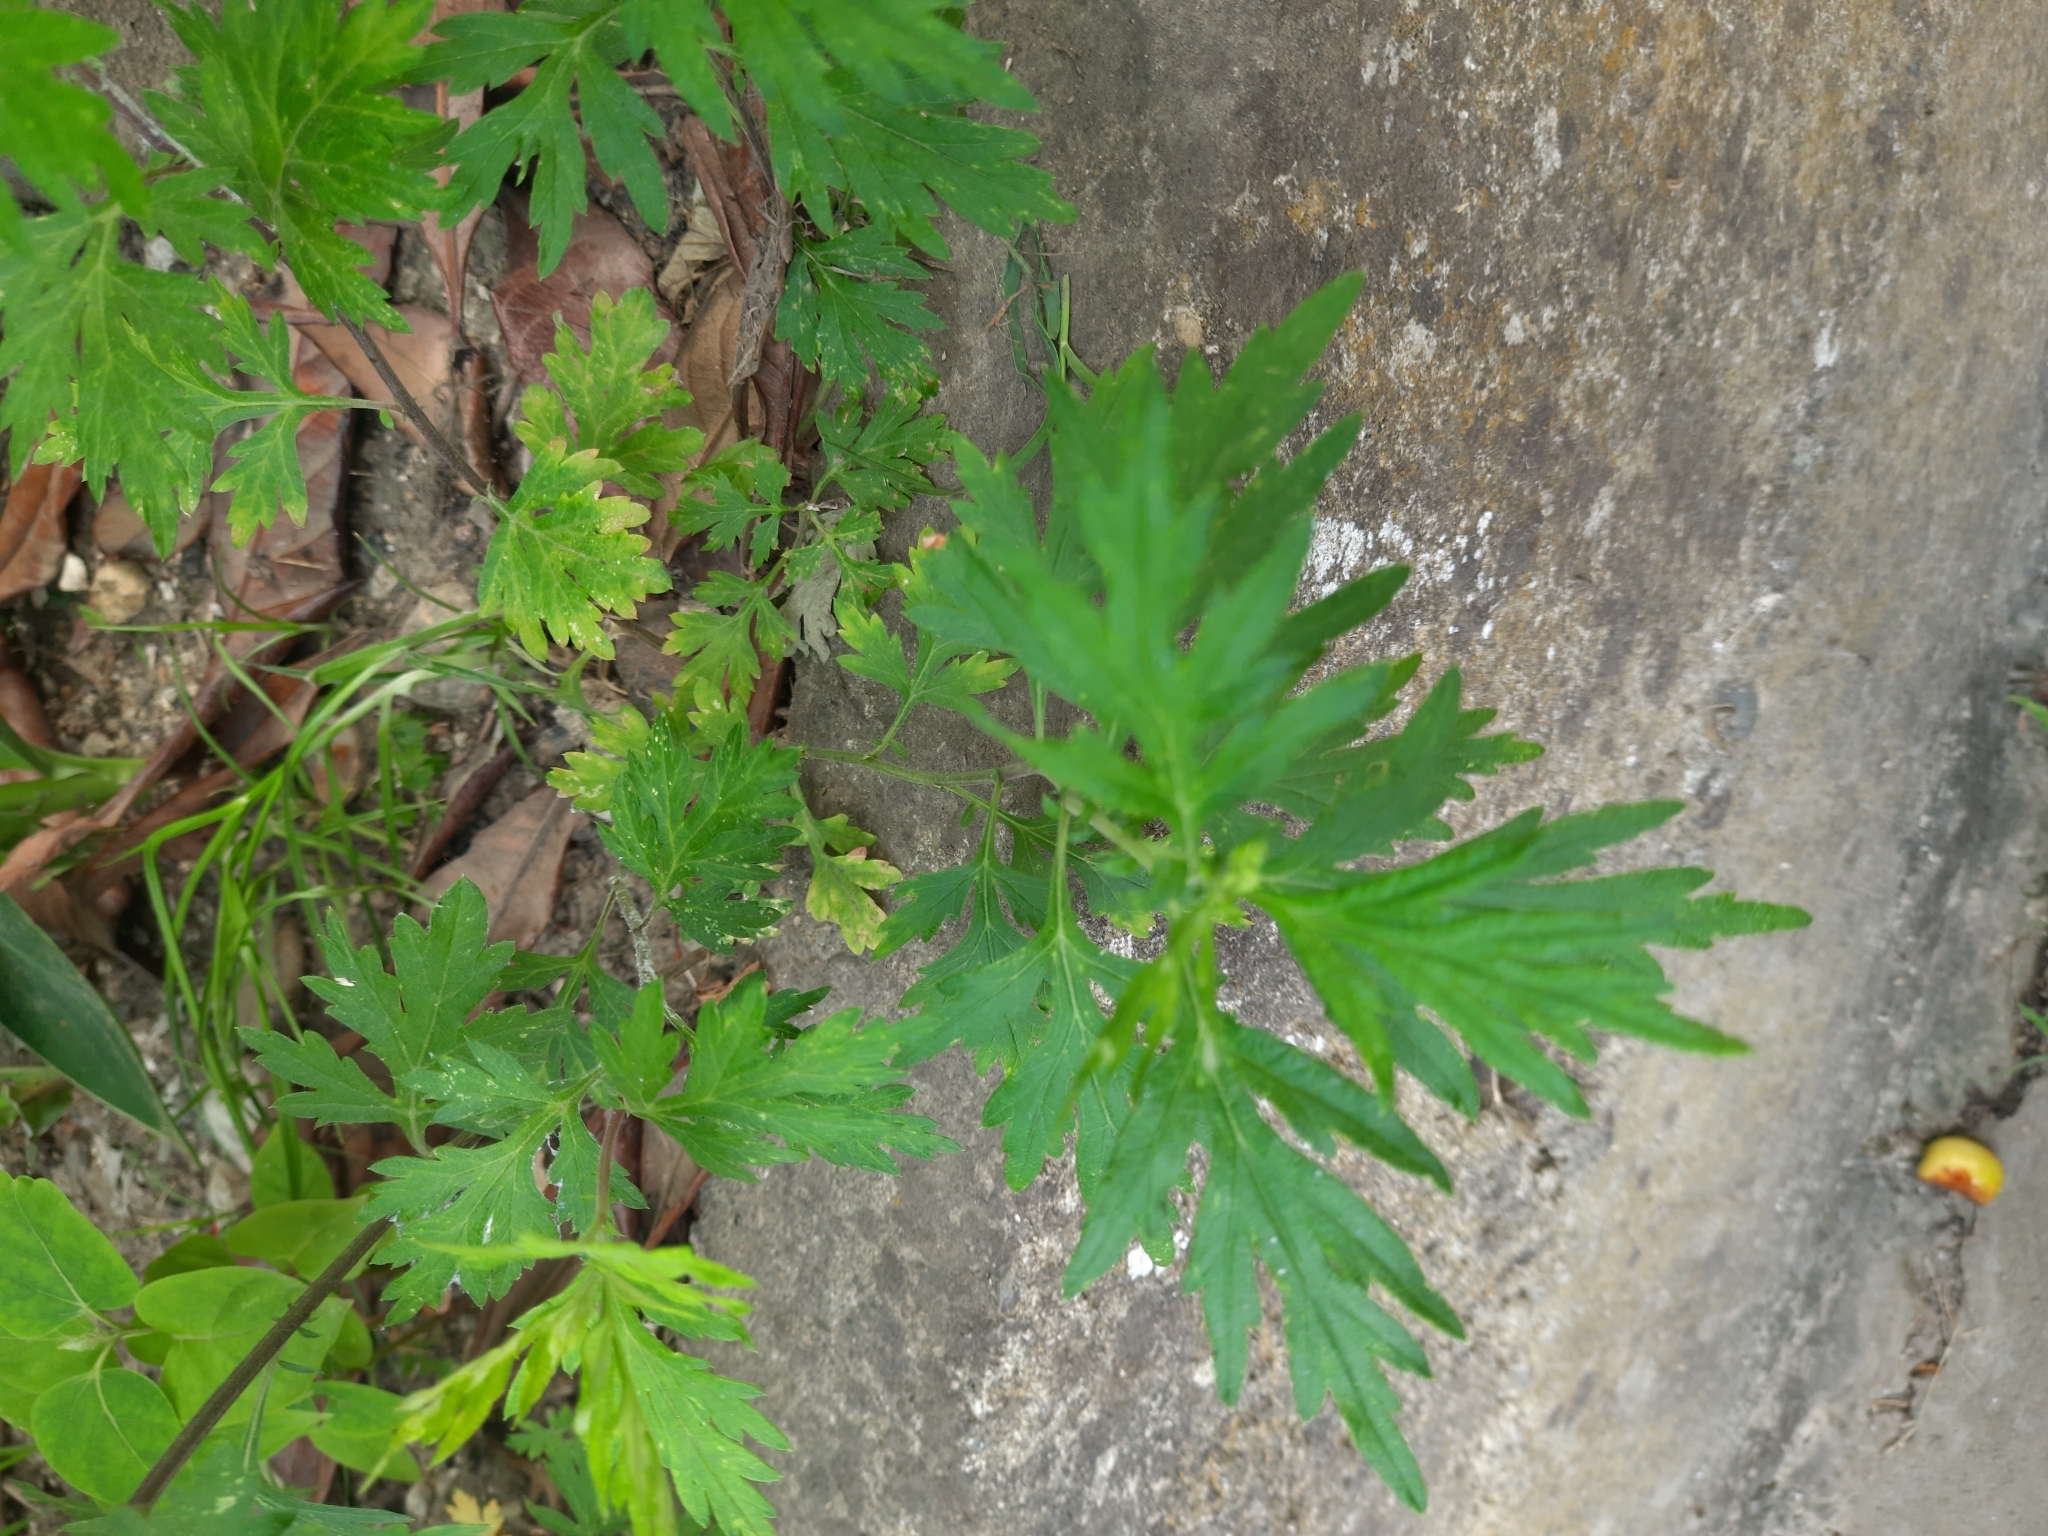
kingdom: Plantae
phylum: Tracheophyta
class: Magnoliopsida
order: Asterales
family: Asteraceae
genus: Artemisia
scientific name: Artemisia vulgaris
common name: Mugwort
